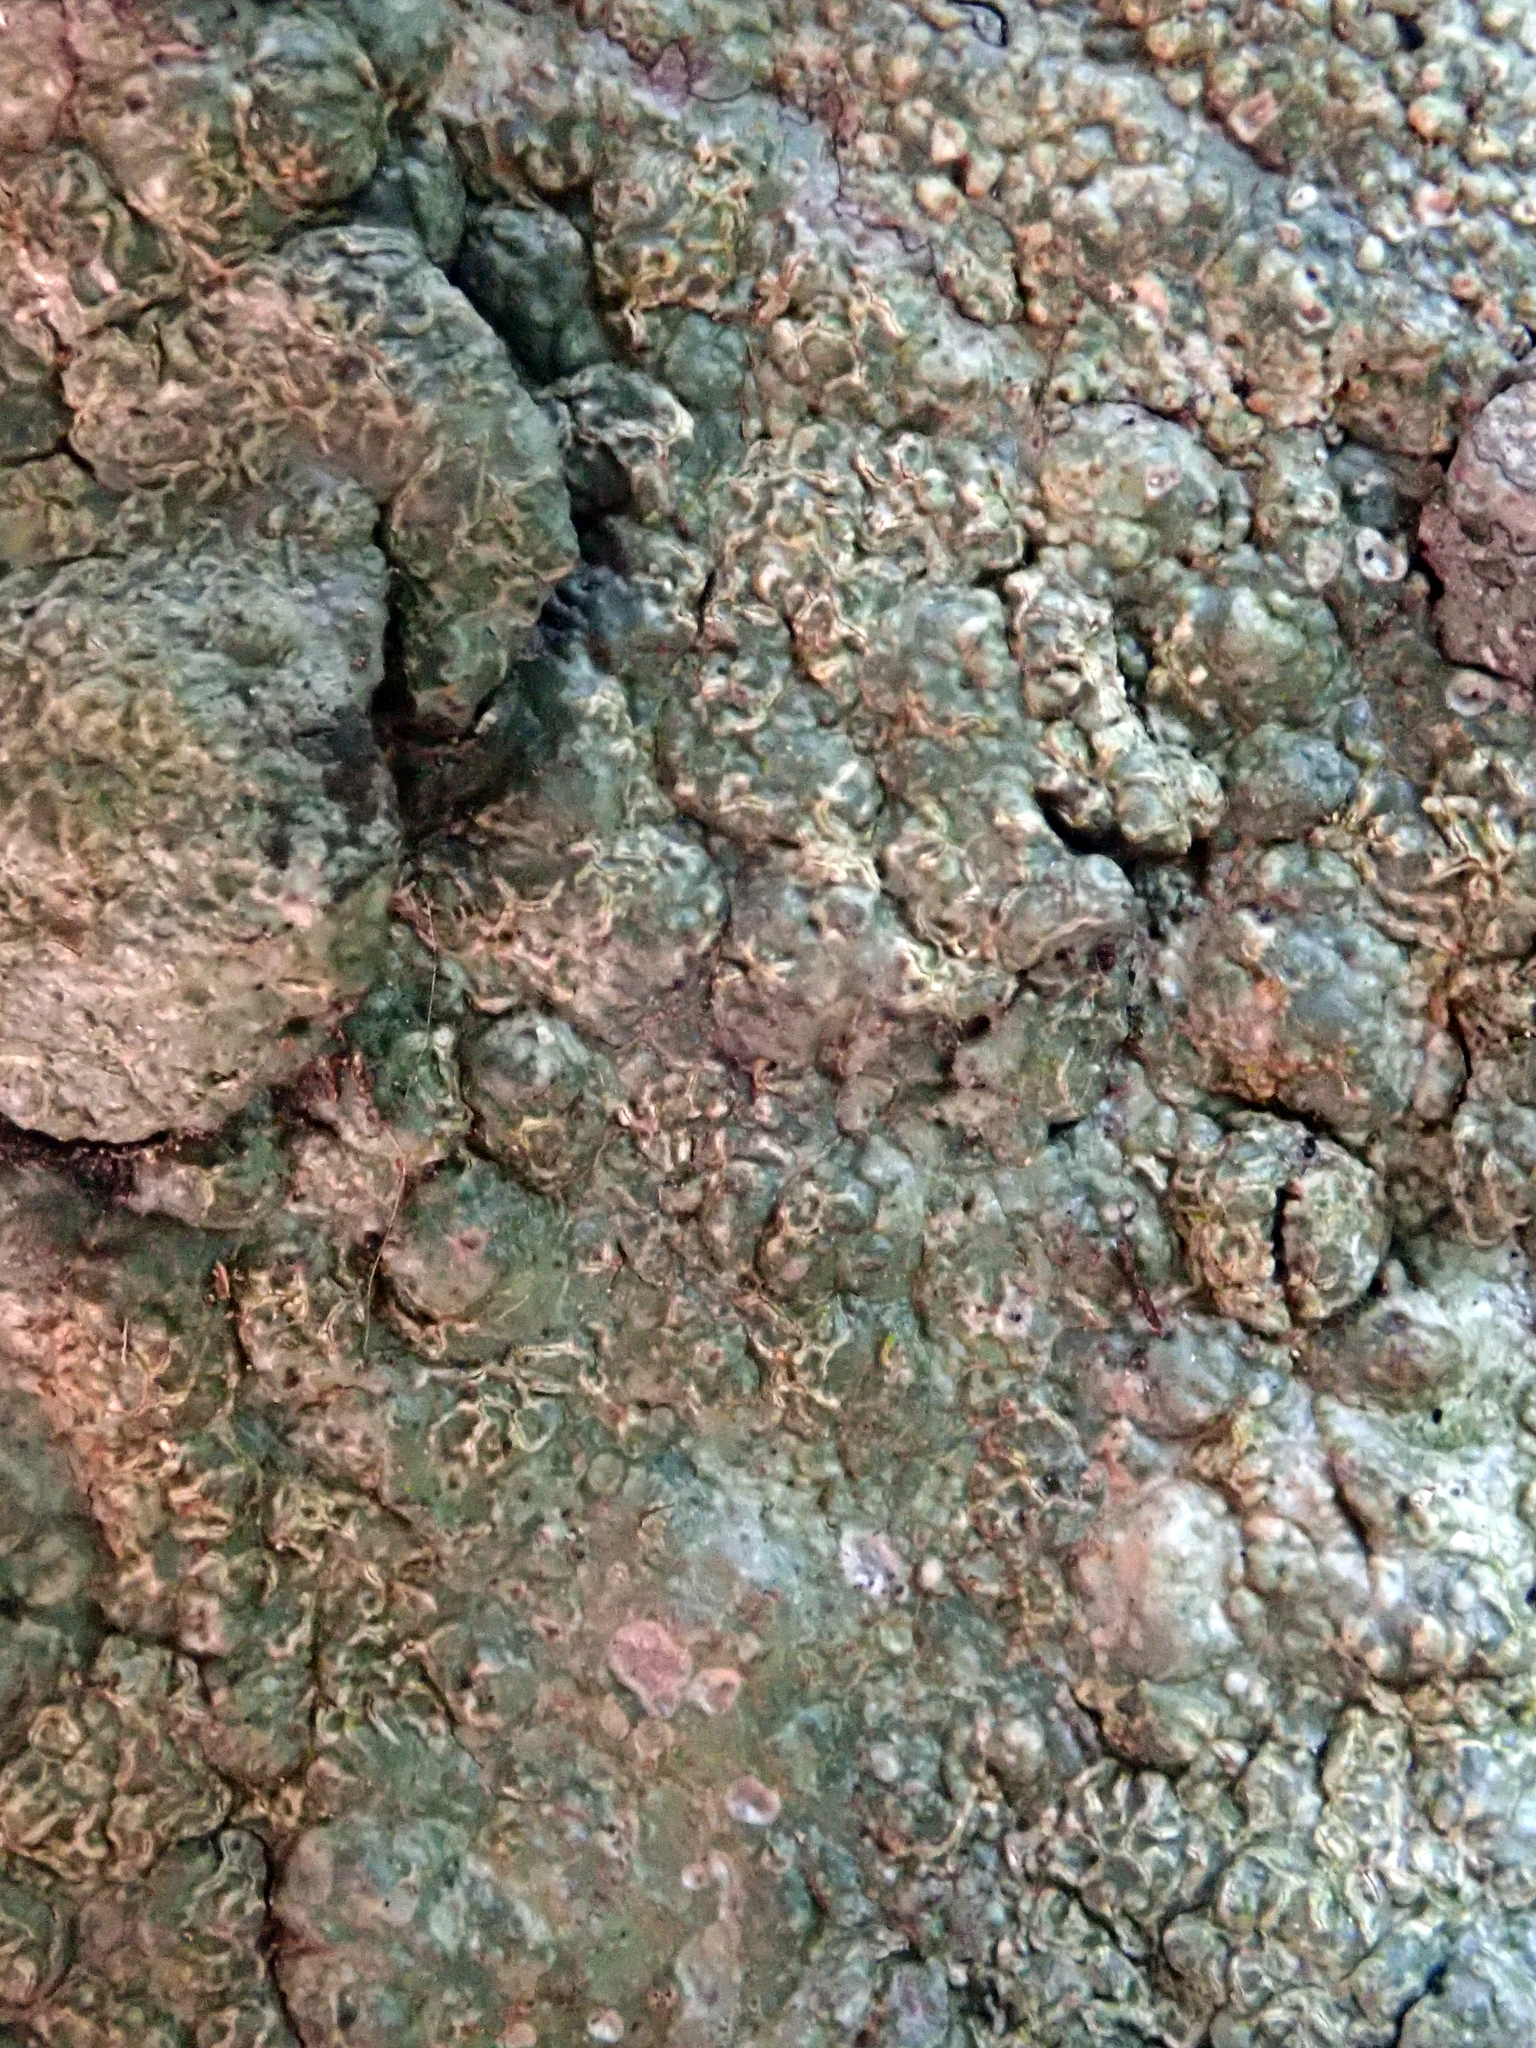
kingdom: Fungi
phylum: Ascomycota
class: Lecanoromycetes
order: Ostropales
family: Graphidaceae
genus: Fissurina
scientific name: Fissurina dumastii
